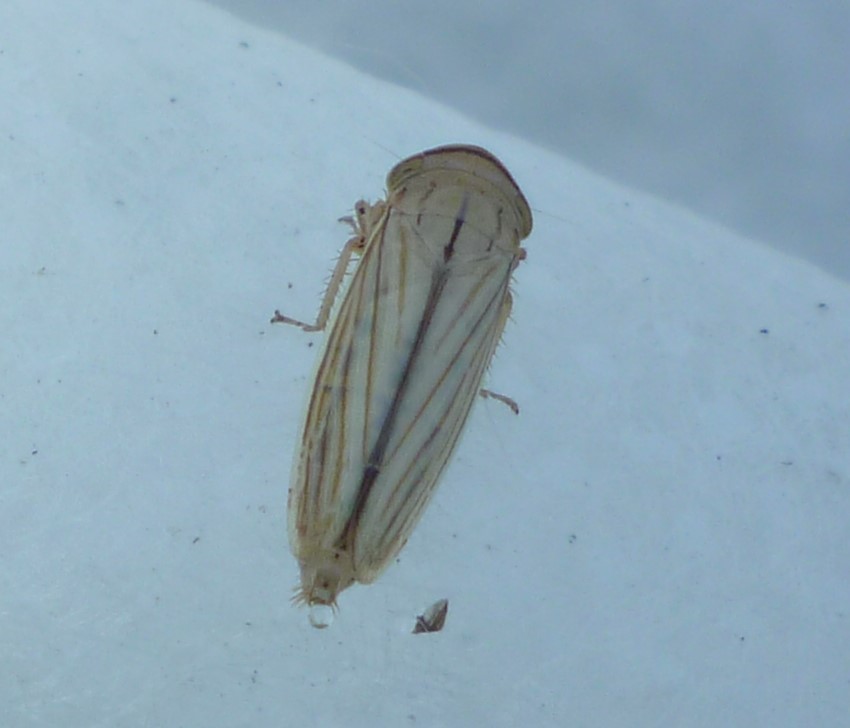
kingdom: Animalia
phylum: Arthropoda
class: Insecta
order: Hemiptera
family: Cicadellidae
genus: Athysanus
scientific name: Athysanus argentarius
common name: Silver leafhopper
